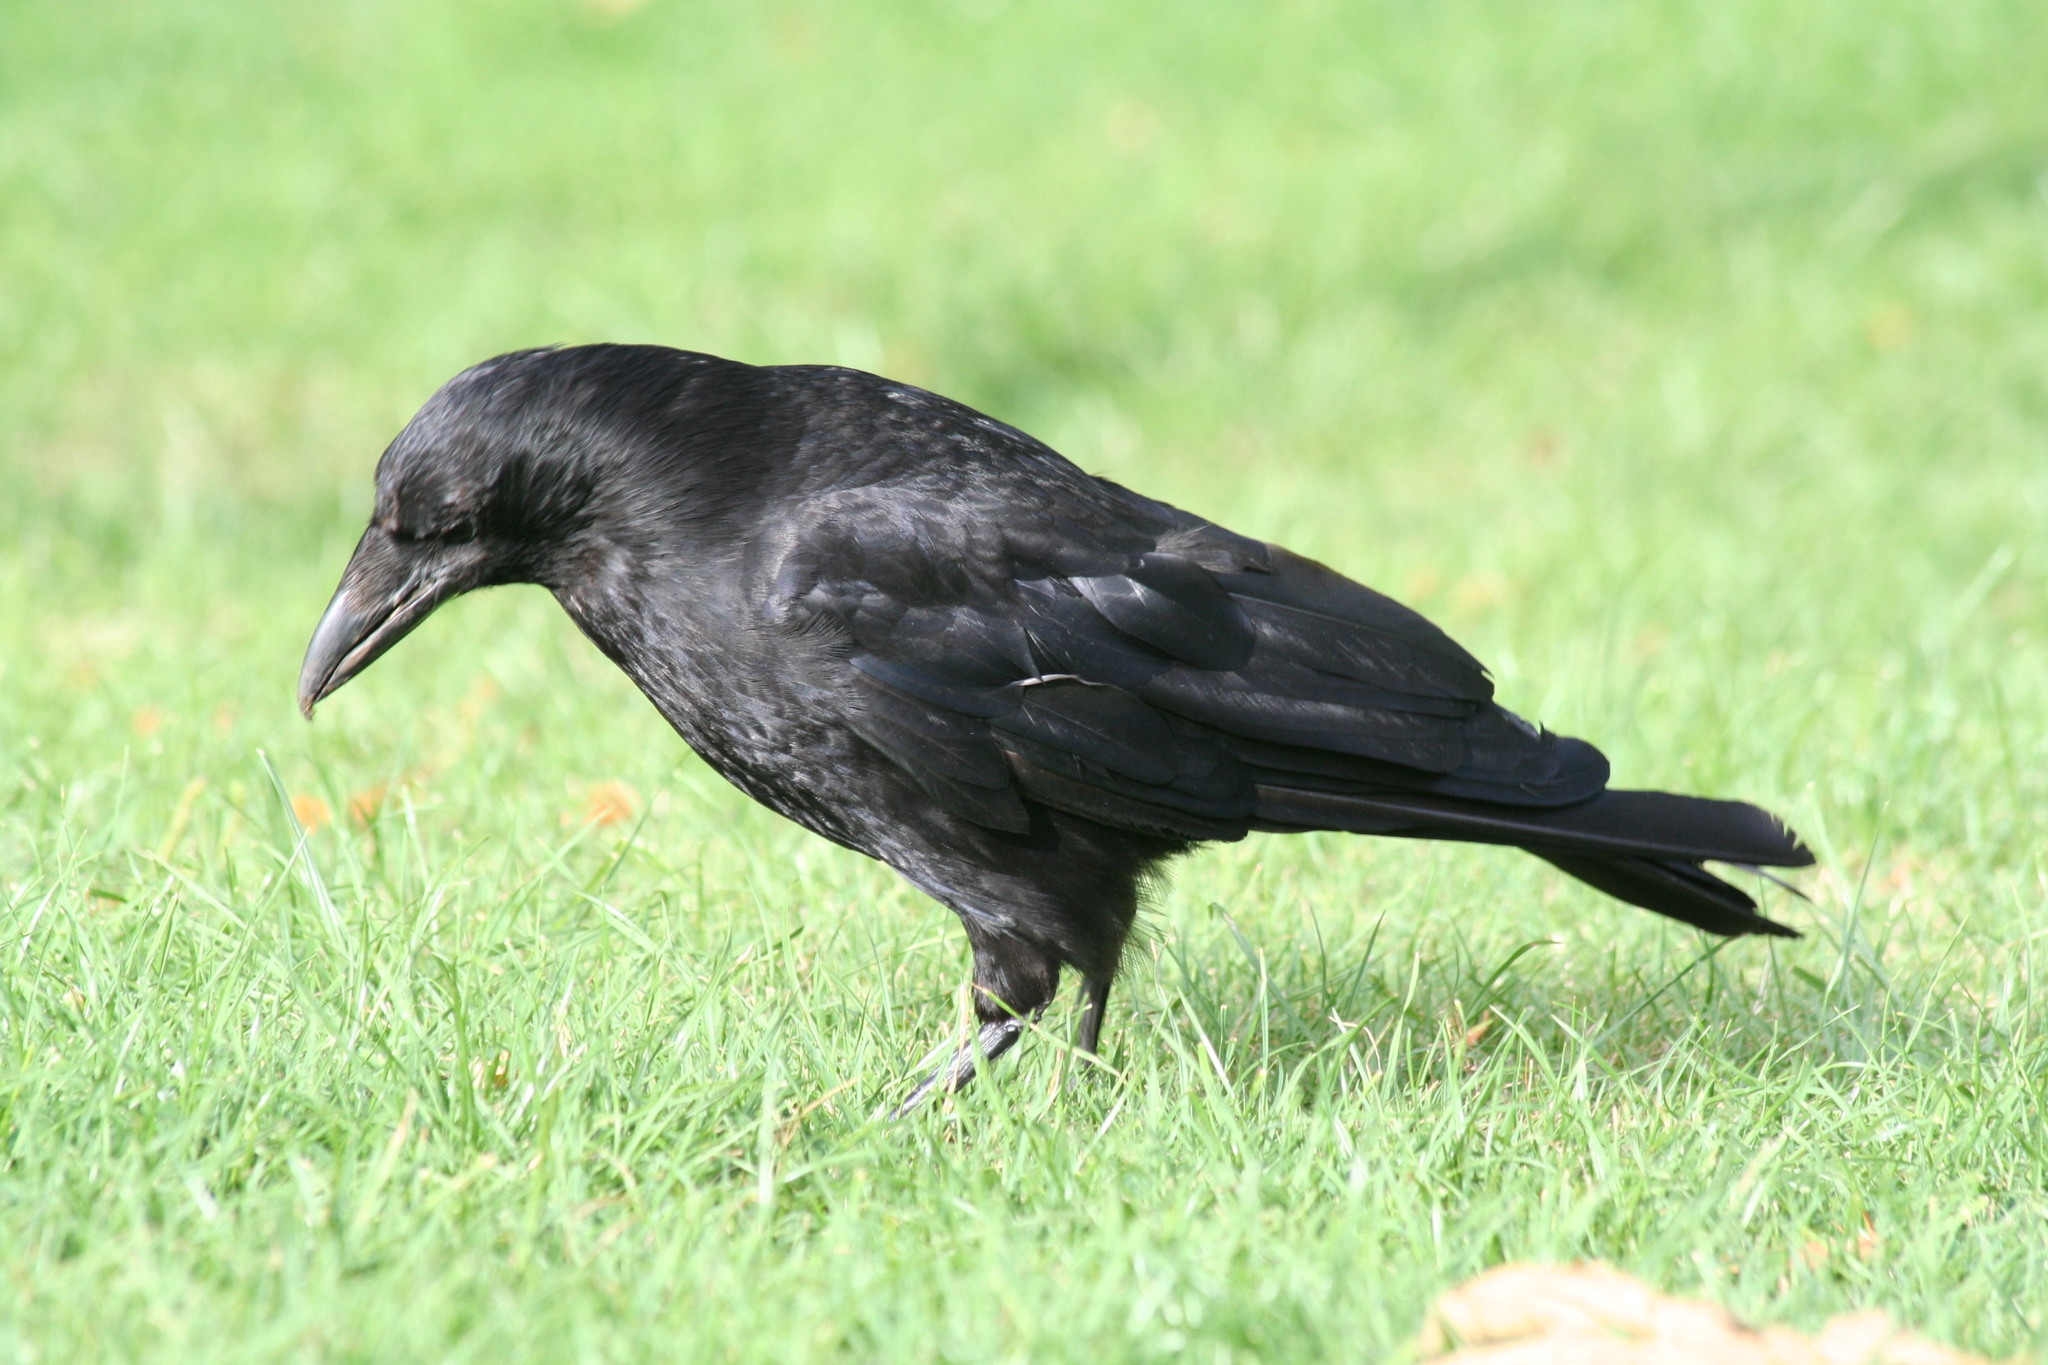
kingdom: Animalia
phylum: Chordata
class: Aves
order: Passeriformes
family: Corvidae
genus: Corvus
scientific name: Corvus corone
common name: Carrion crow
